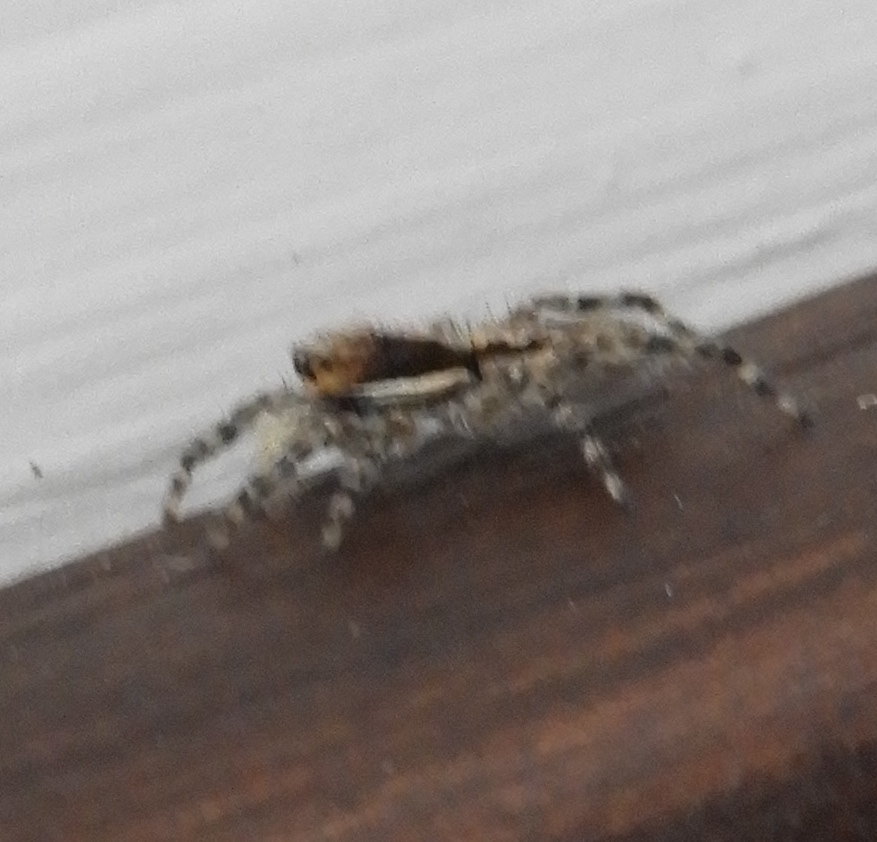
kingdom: Animalia
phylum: Arthropoda
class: Arachnida
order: Araneae
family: Salticidae
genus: Menemerus
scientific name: Menemerus bivittatus
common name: Gray wall jumper
